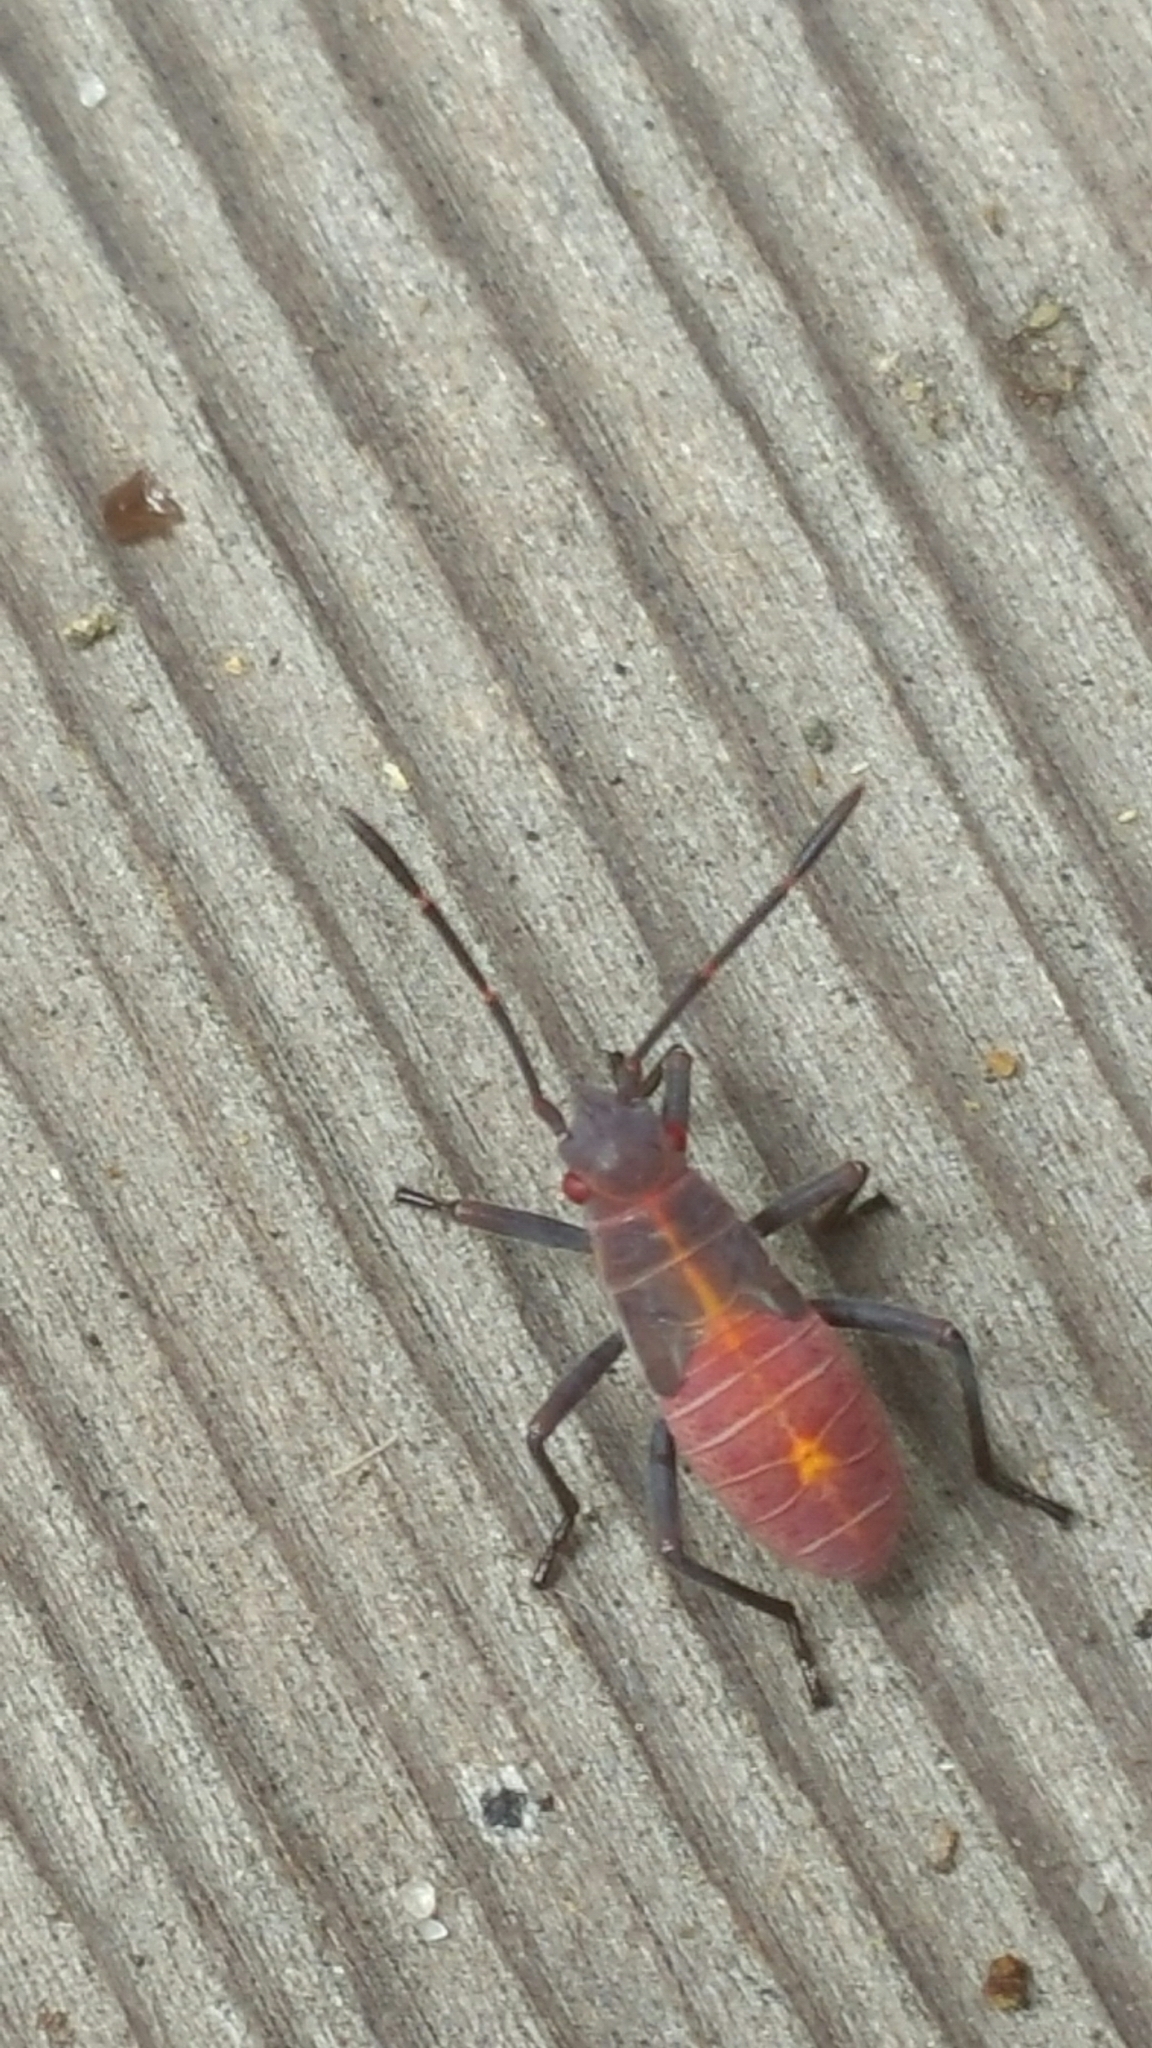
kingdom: Animalia
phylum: Arthropoda
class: Insecta
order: Hemiptera
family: Rhopalidae
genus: Boisea
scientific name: Boisea rubrolineata
